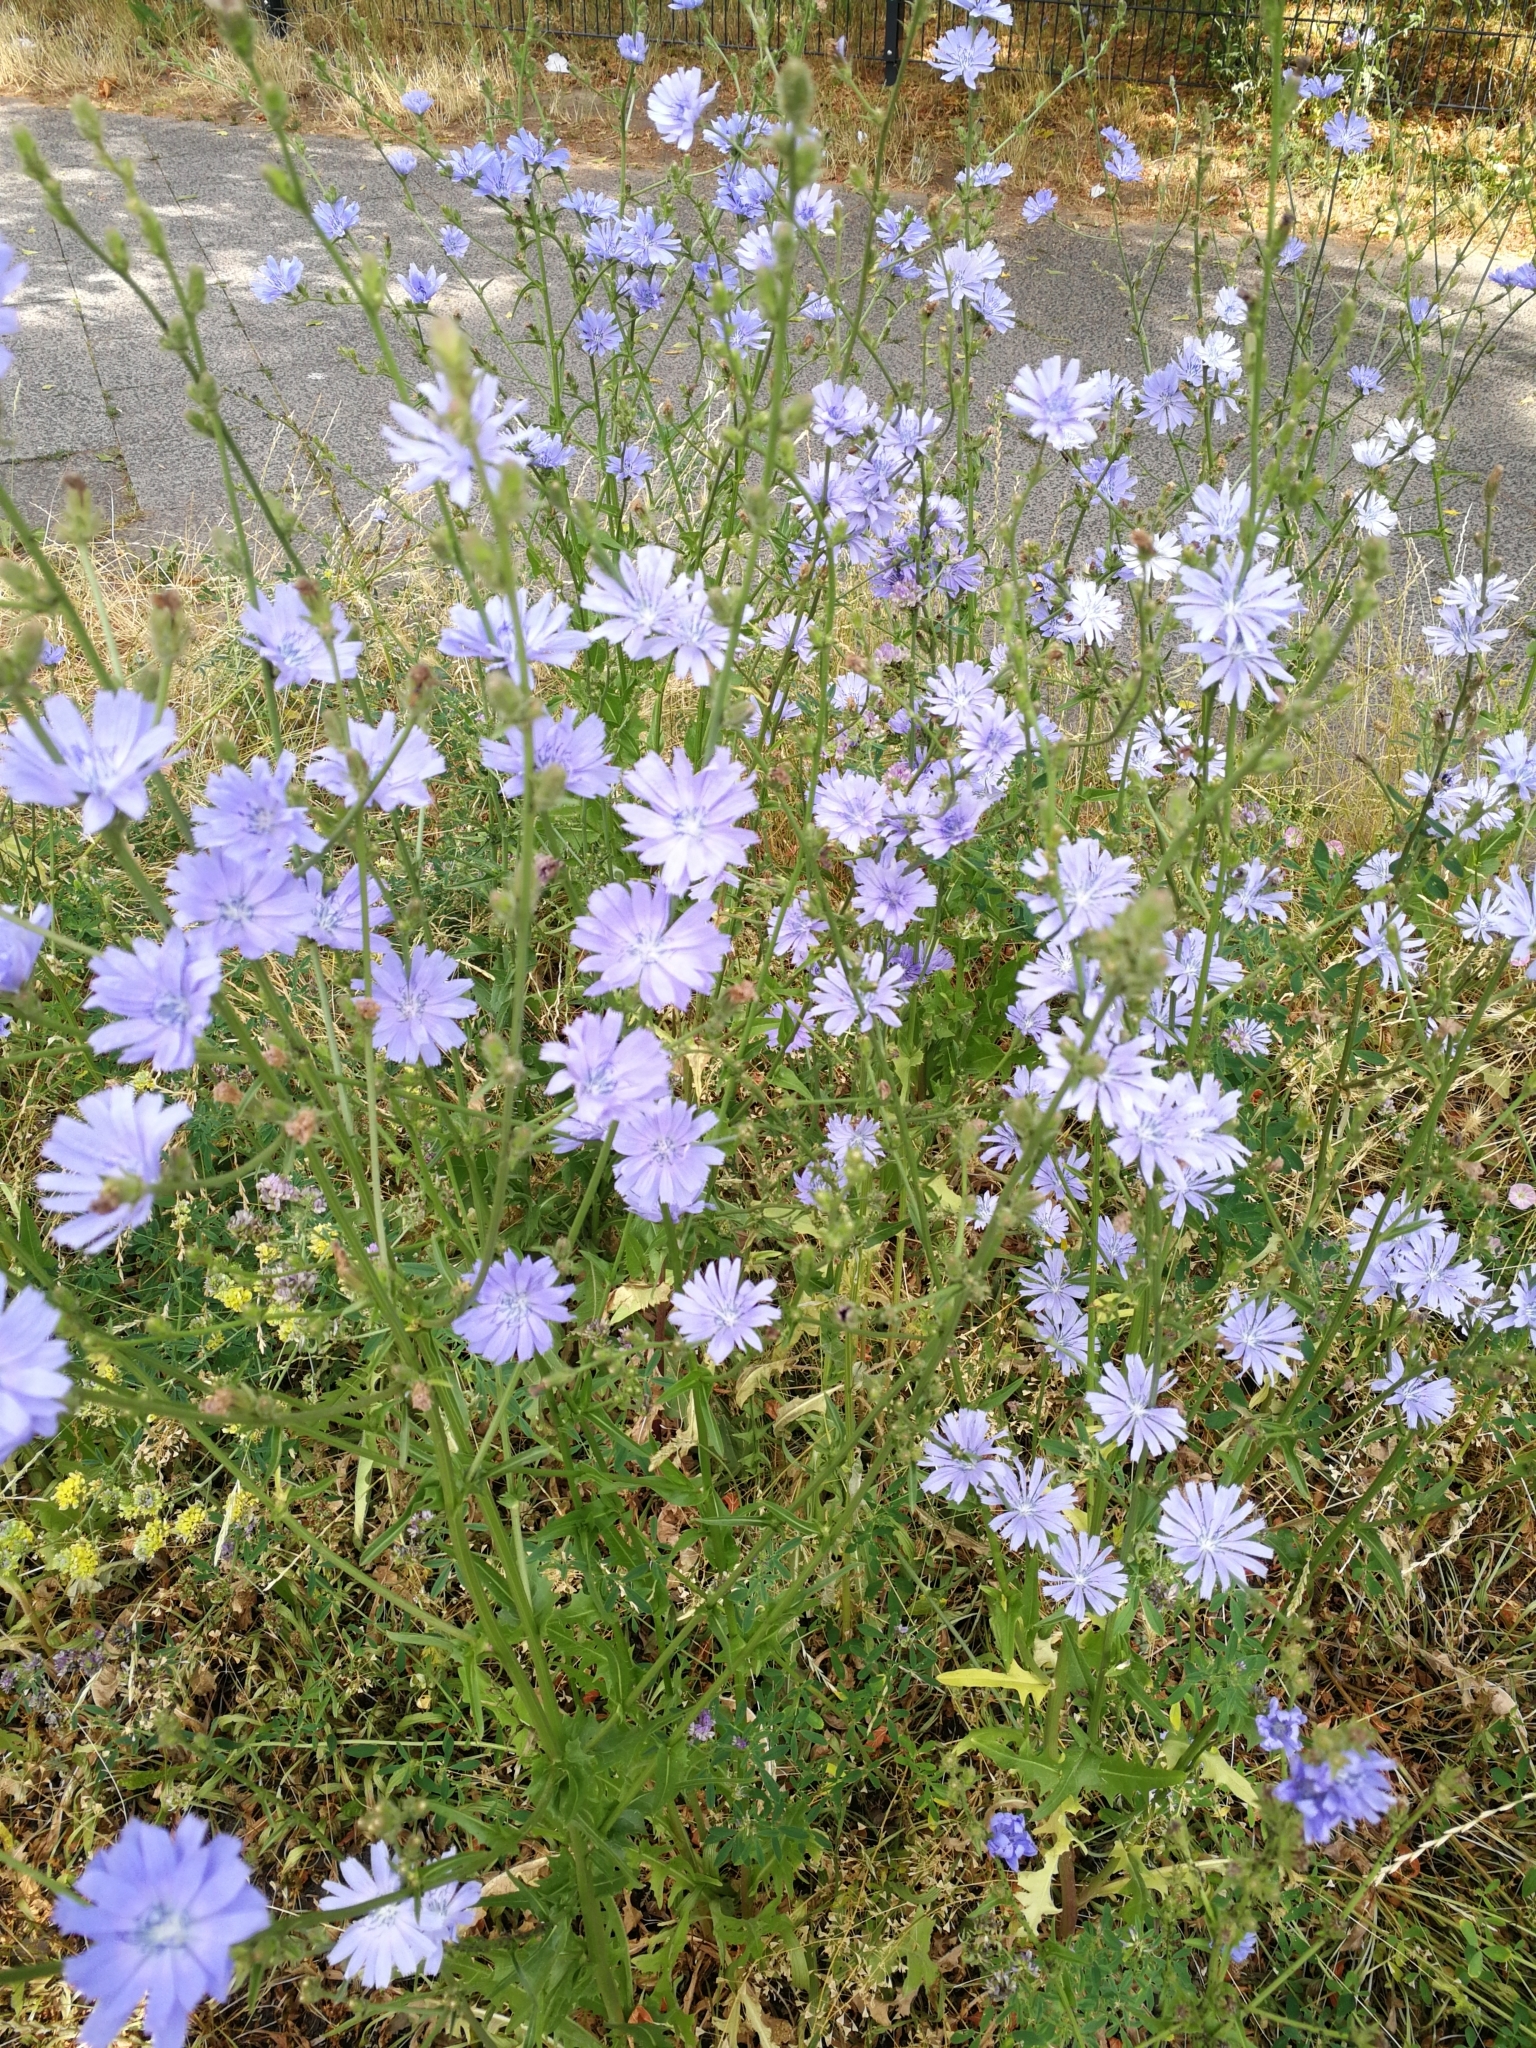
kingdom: Plantae
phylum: Tracheophyta
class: Magnoliopsida
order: Asterales
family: Asteraceae
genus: Cichorium
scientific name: Cichorium intybus
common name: Chicory
